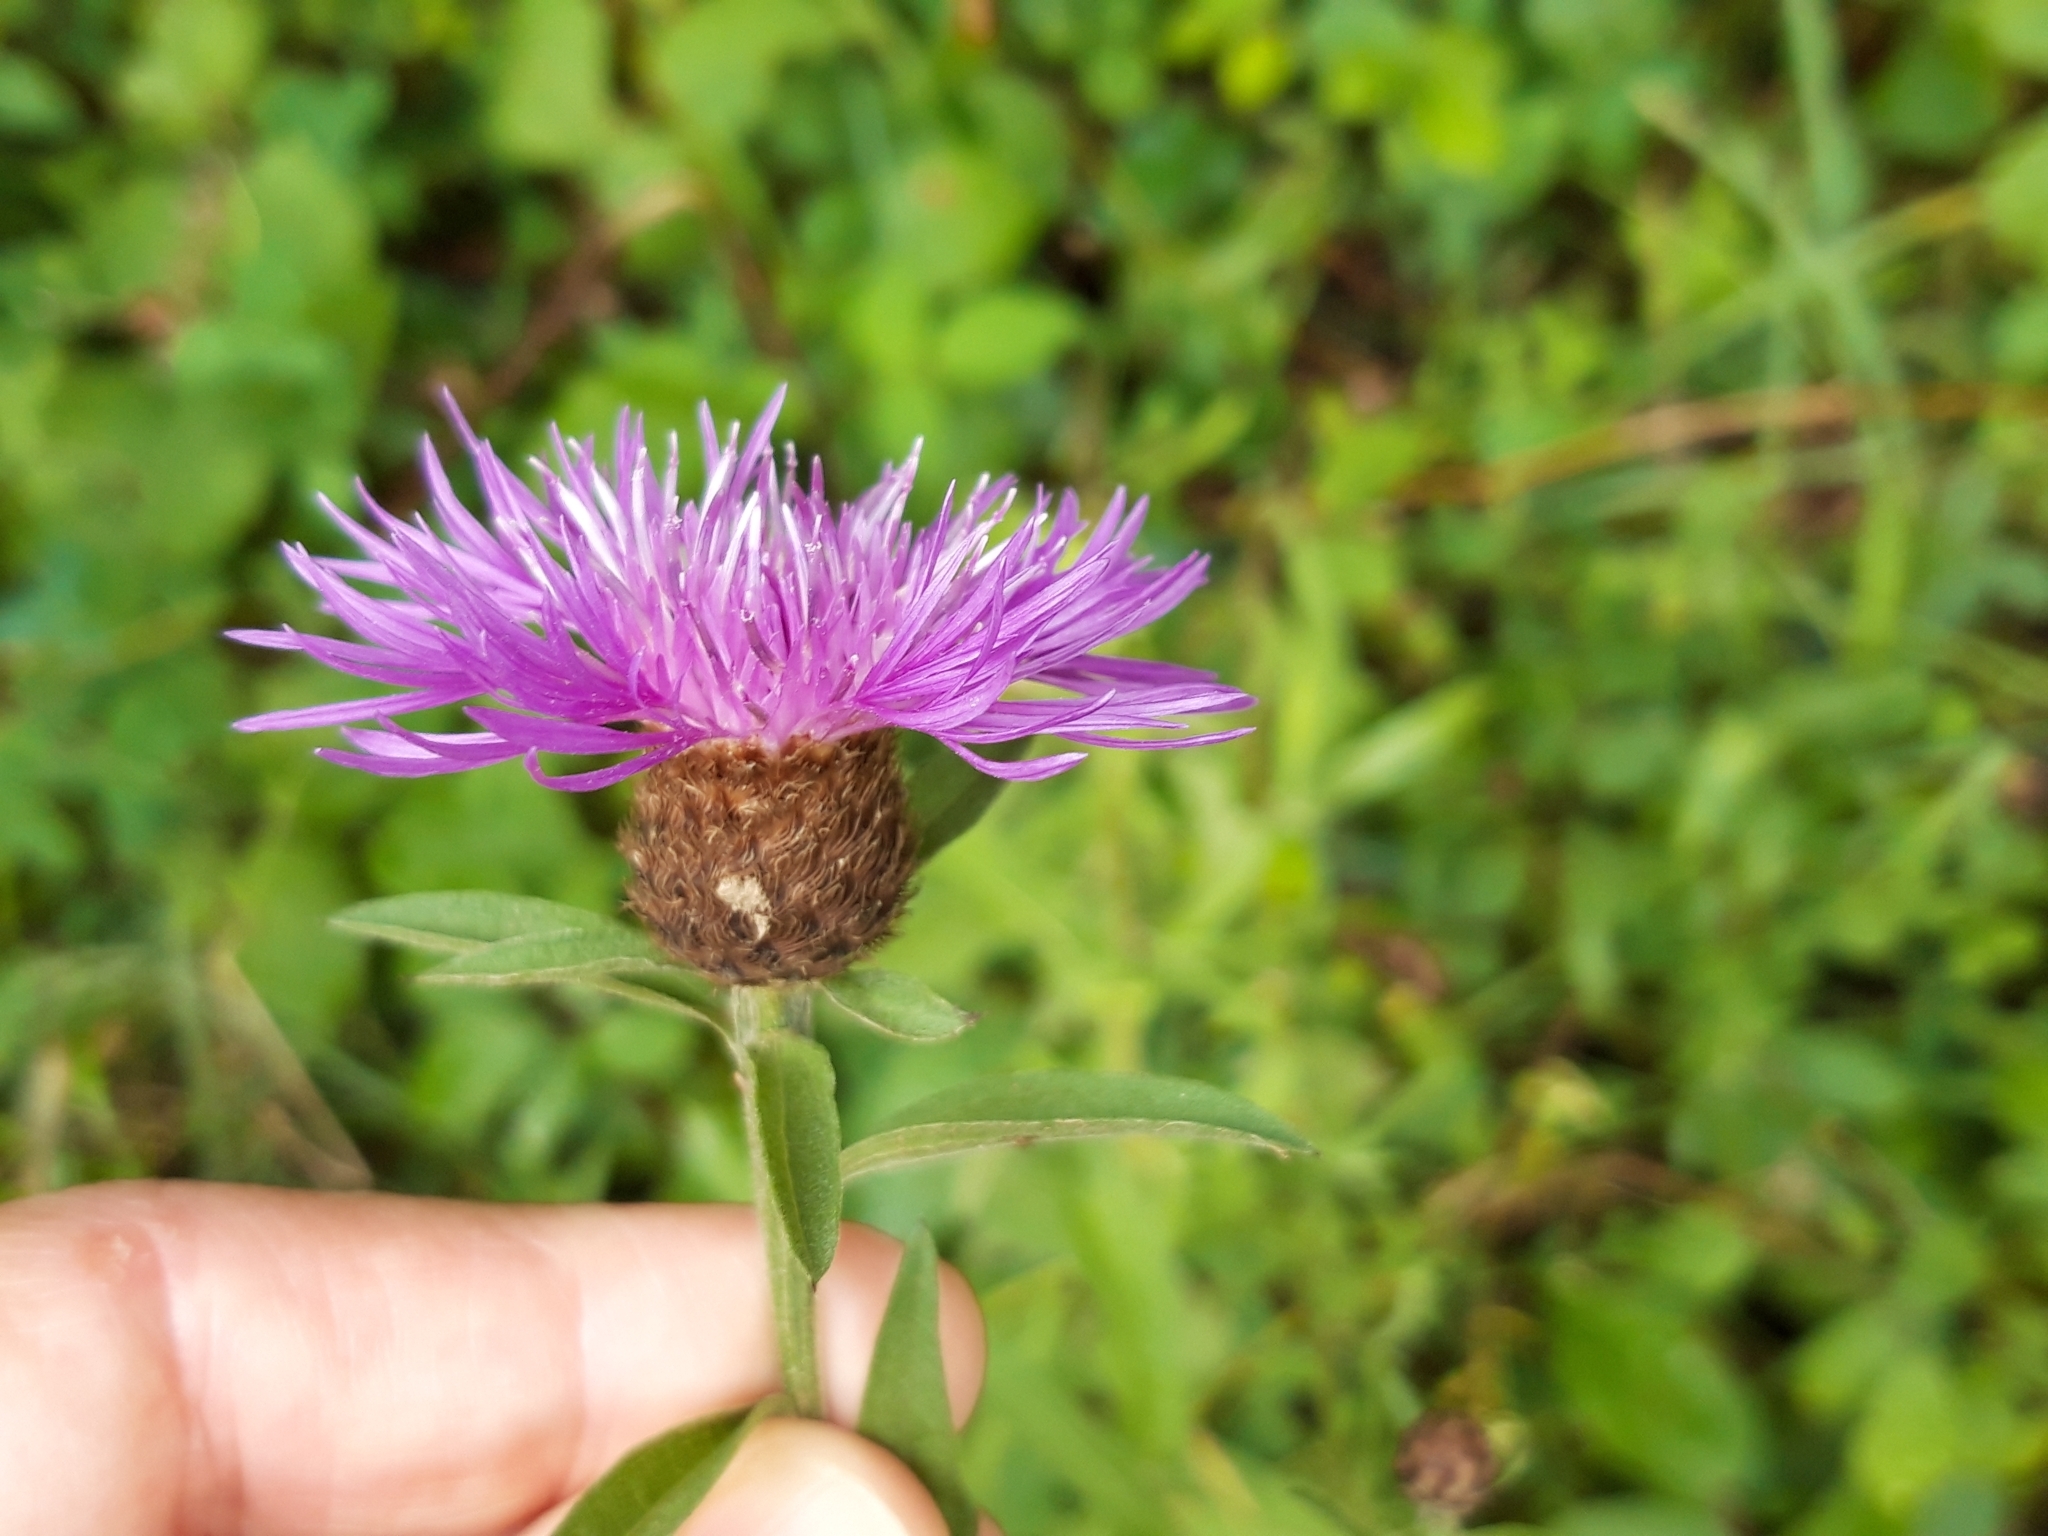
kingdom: Plantae
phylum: Tracheophyta
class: Magnoliopsida
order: Asterales
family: Asteraceae
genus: Centaurea
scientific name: Centaurea nigra
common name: Lesser knapweed
